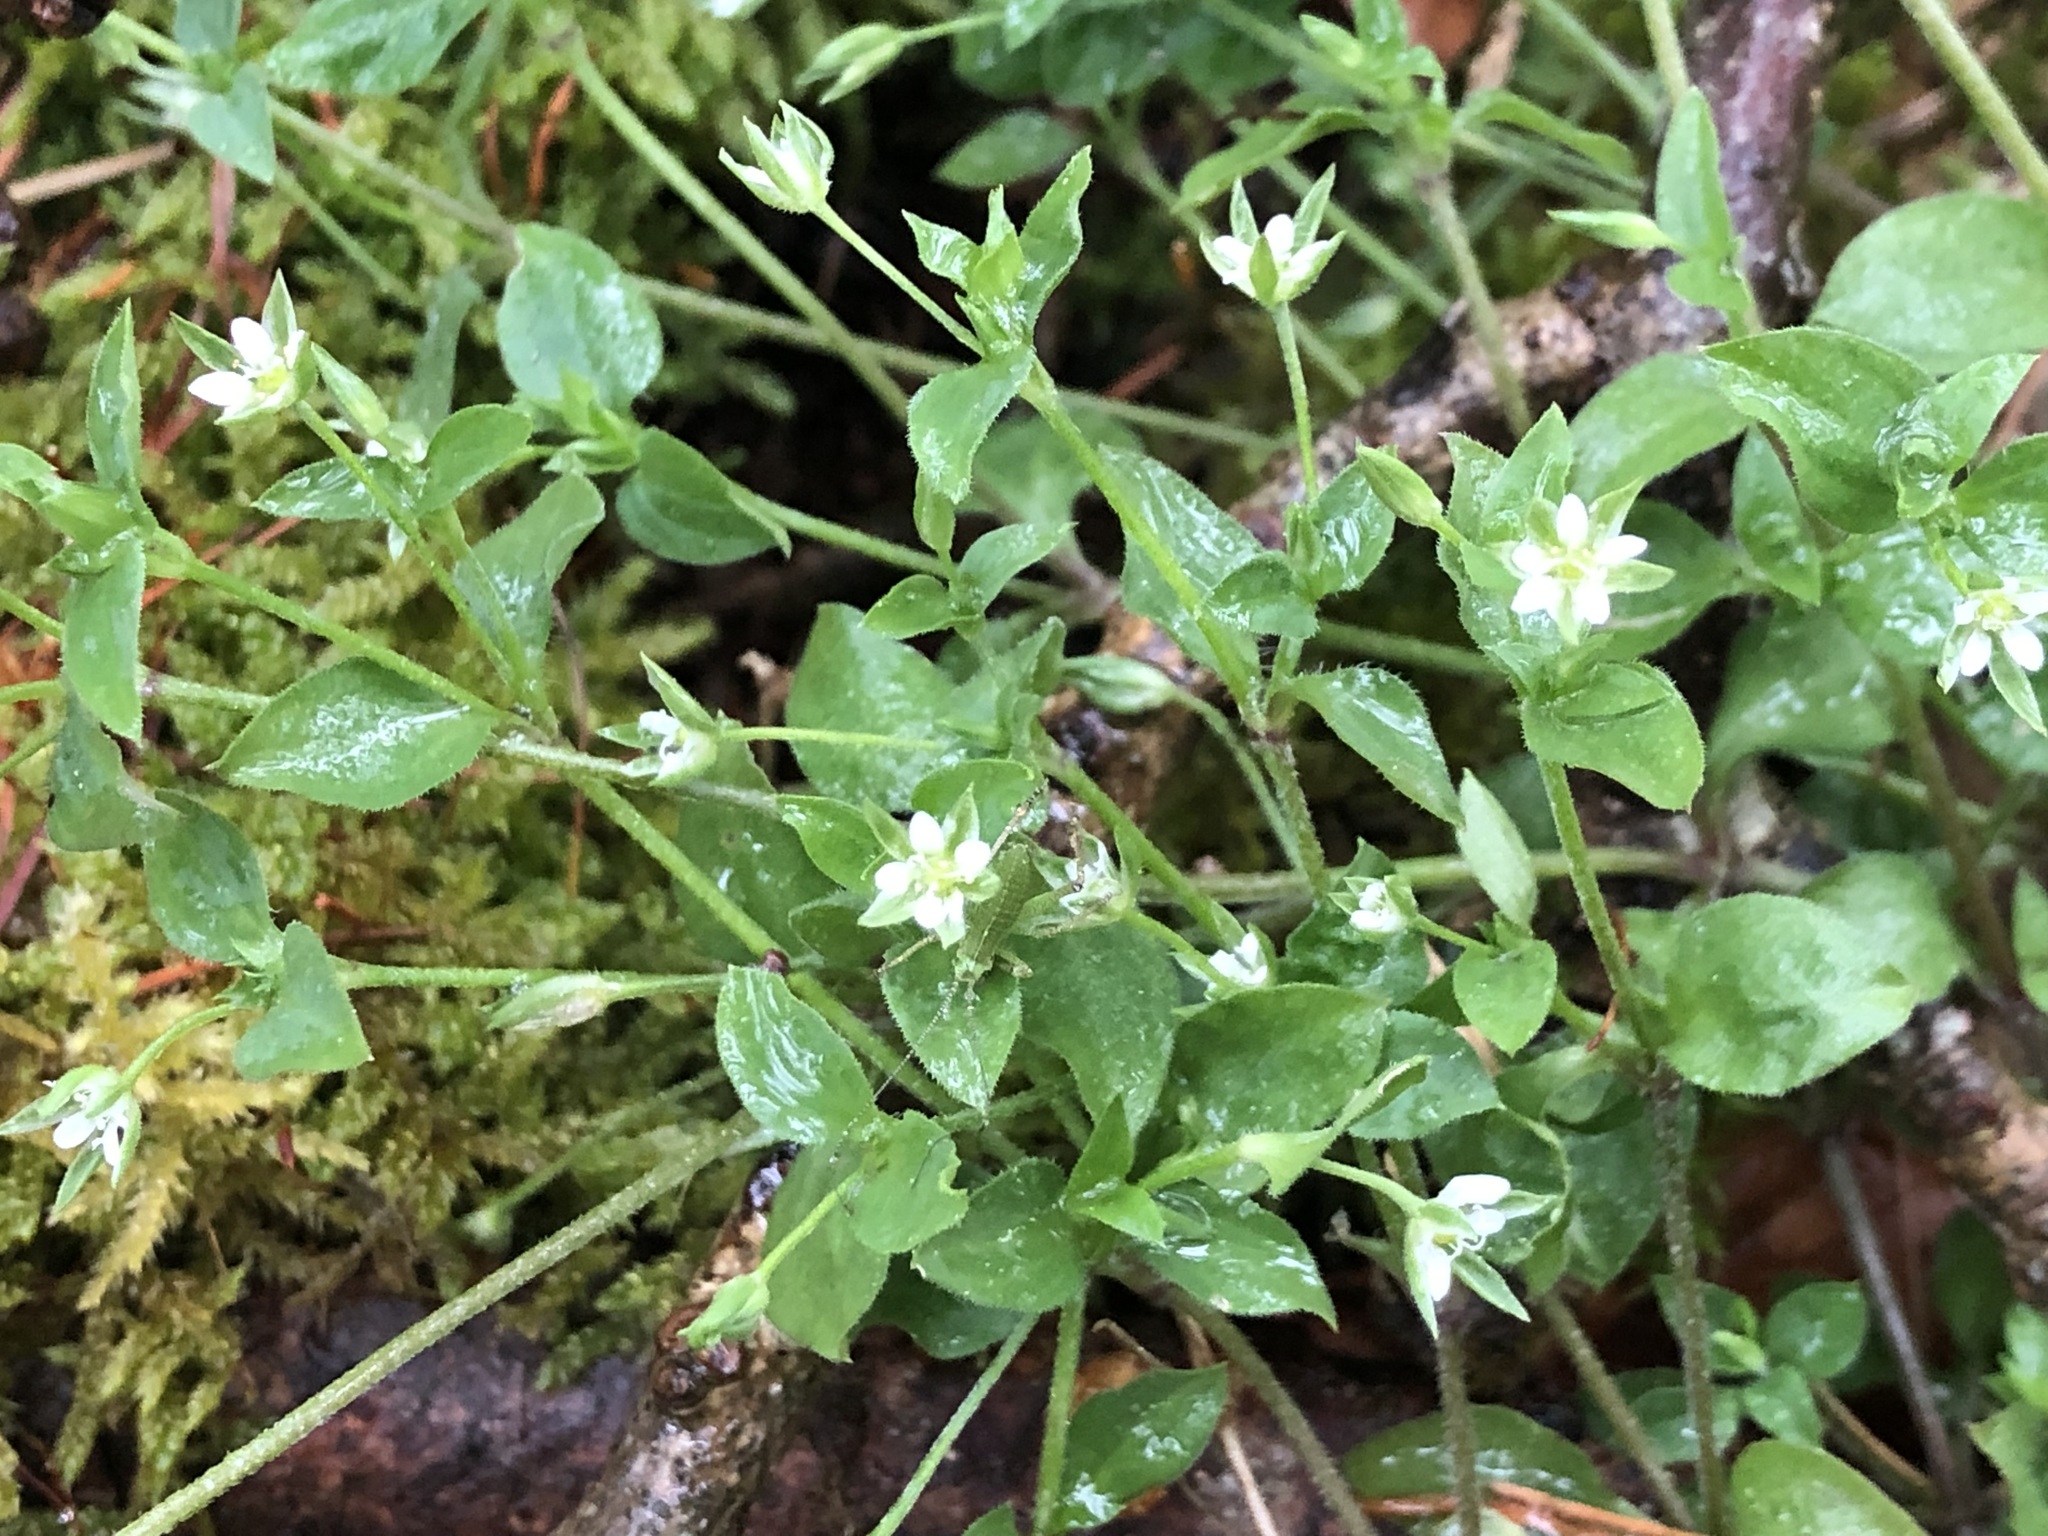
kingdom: Plantae
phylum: Tracheophyta
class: Magnoliopsida
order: Caryophyllales
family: Caryophyllaceae
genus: Moehringia
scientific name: Moehringia trinervia
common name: Three-nerved sandwort
